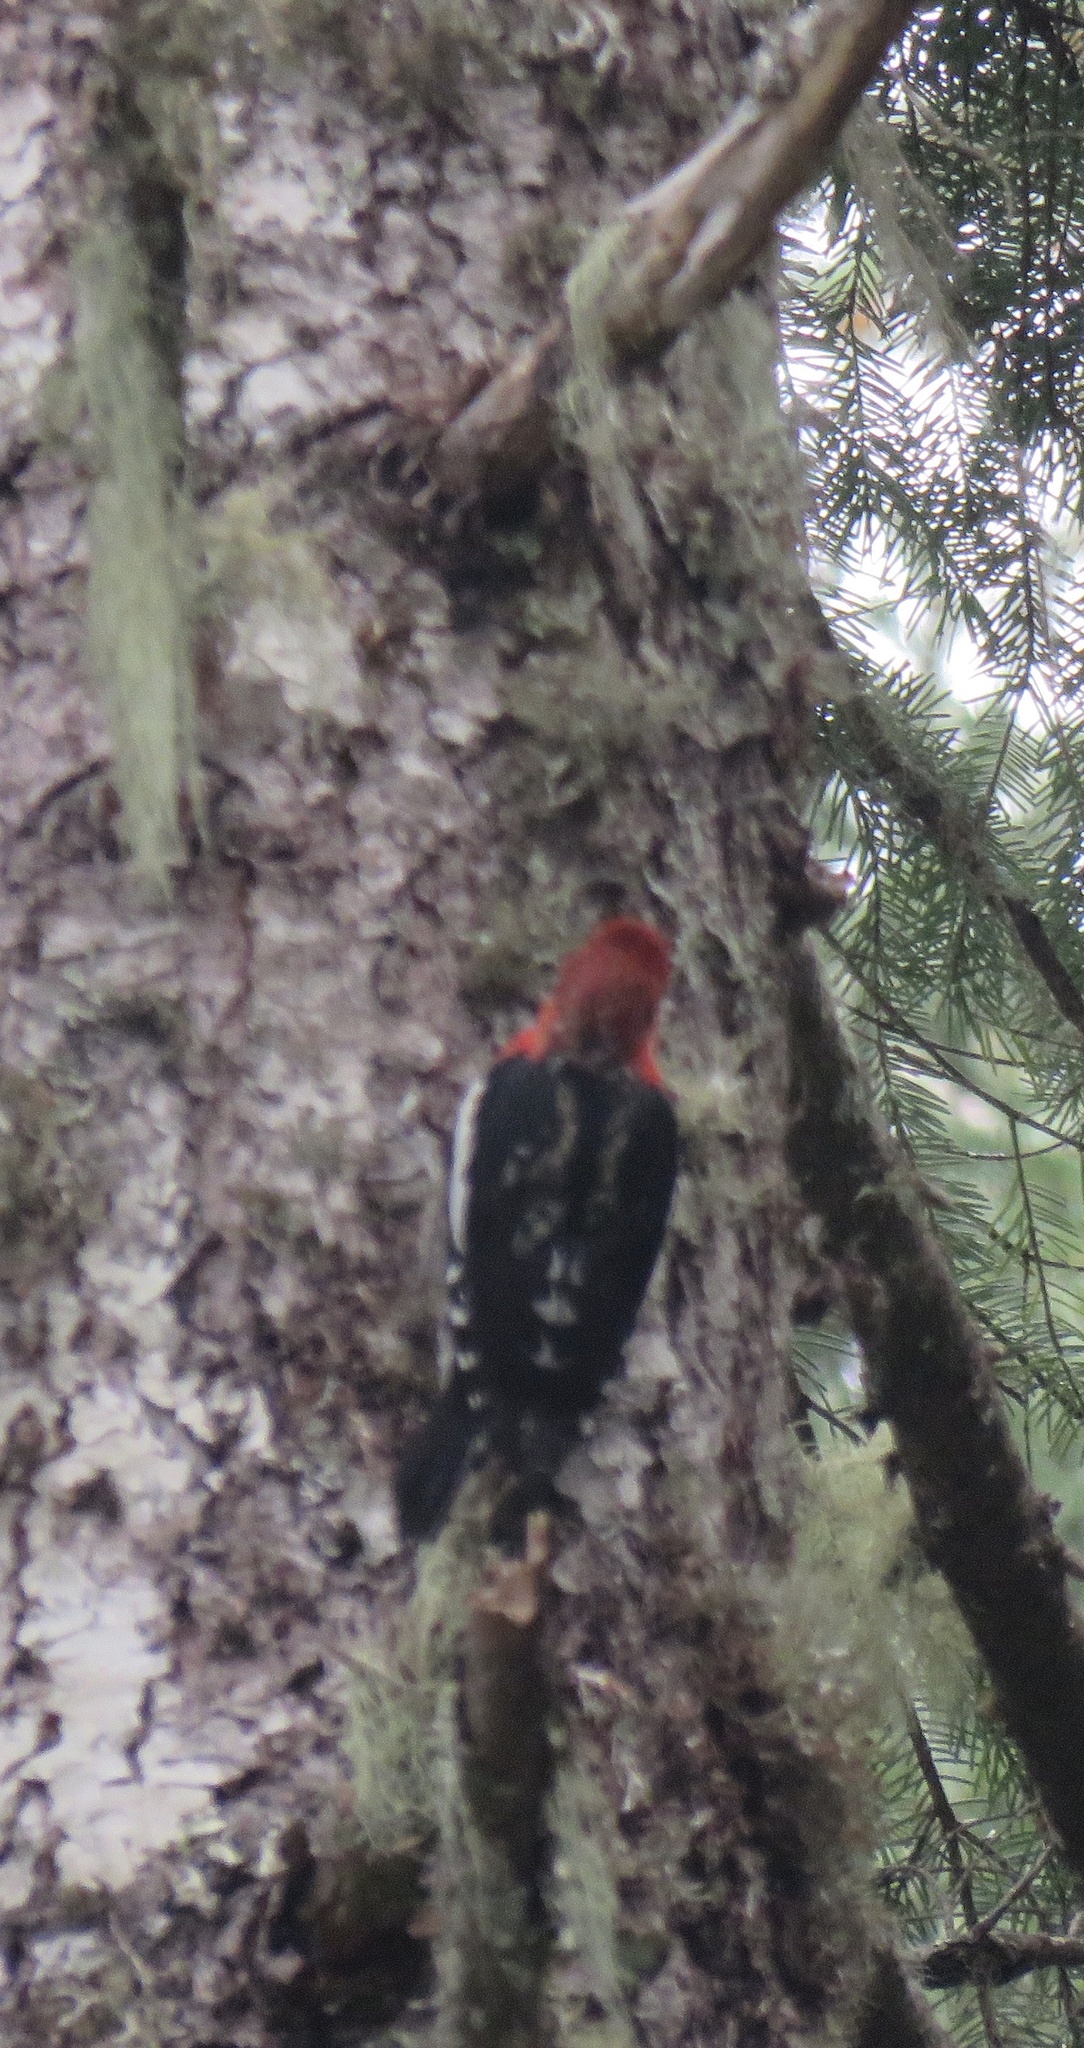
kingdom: Animalia
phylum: Chordata
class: Aves
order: Piciformes
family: Picidae
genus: Sphyrapicus
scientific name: Sphyrapicus ruber
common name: Red-breasted sapsucker
